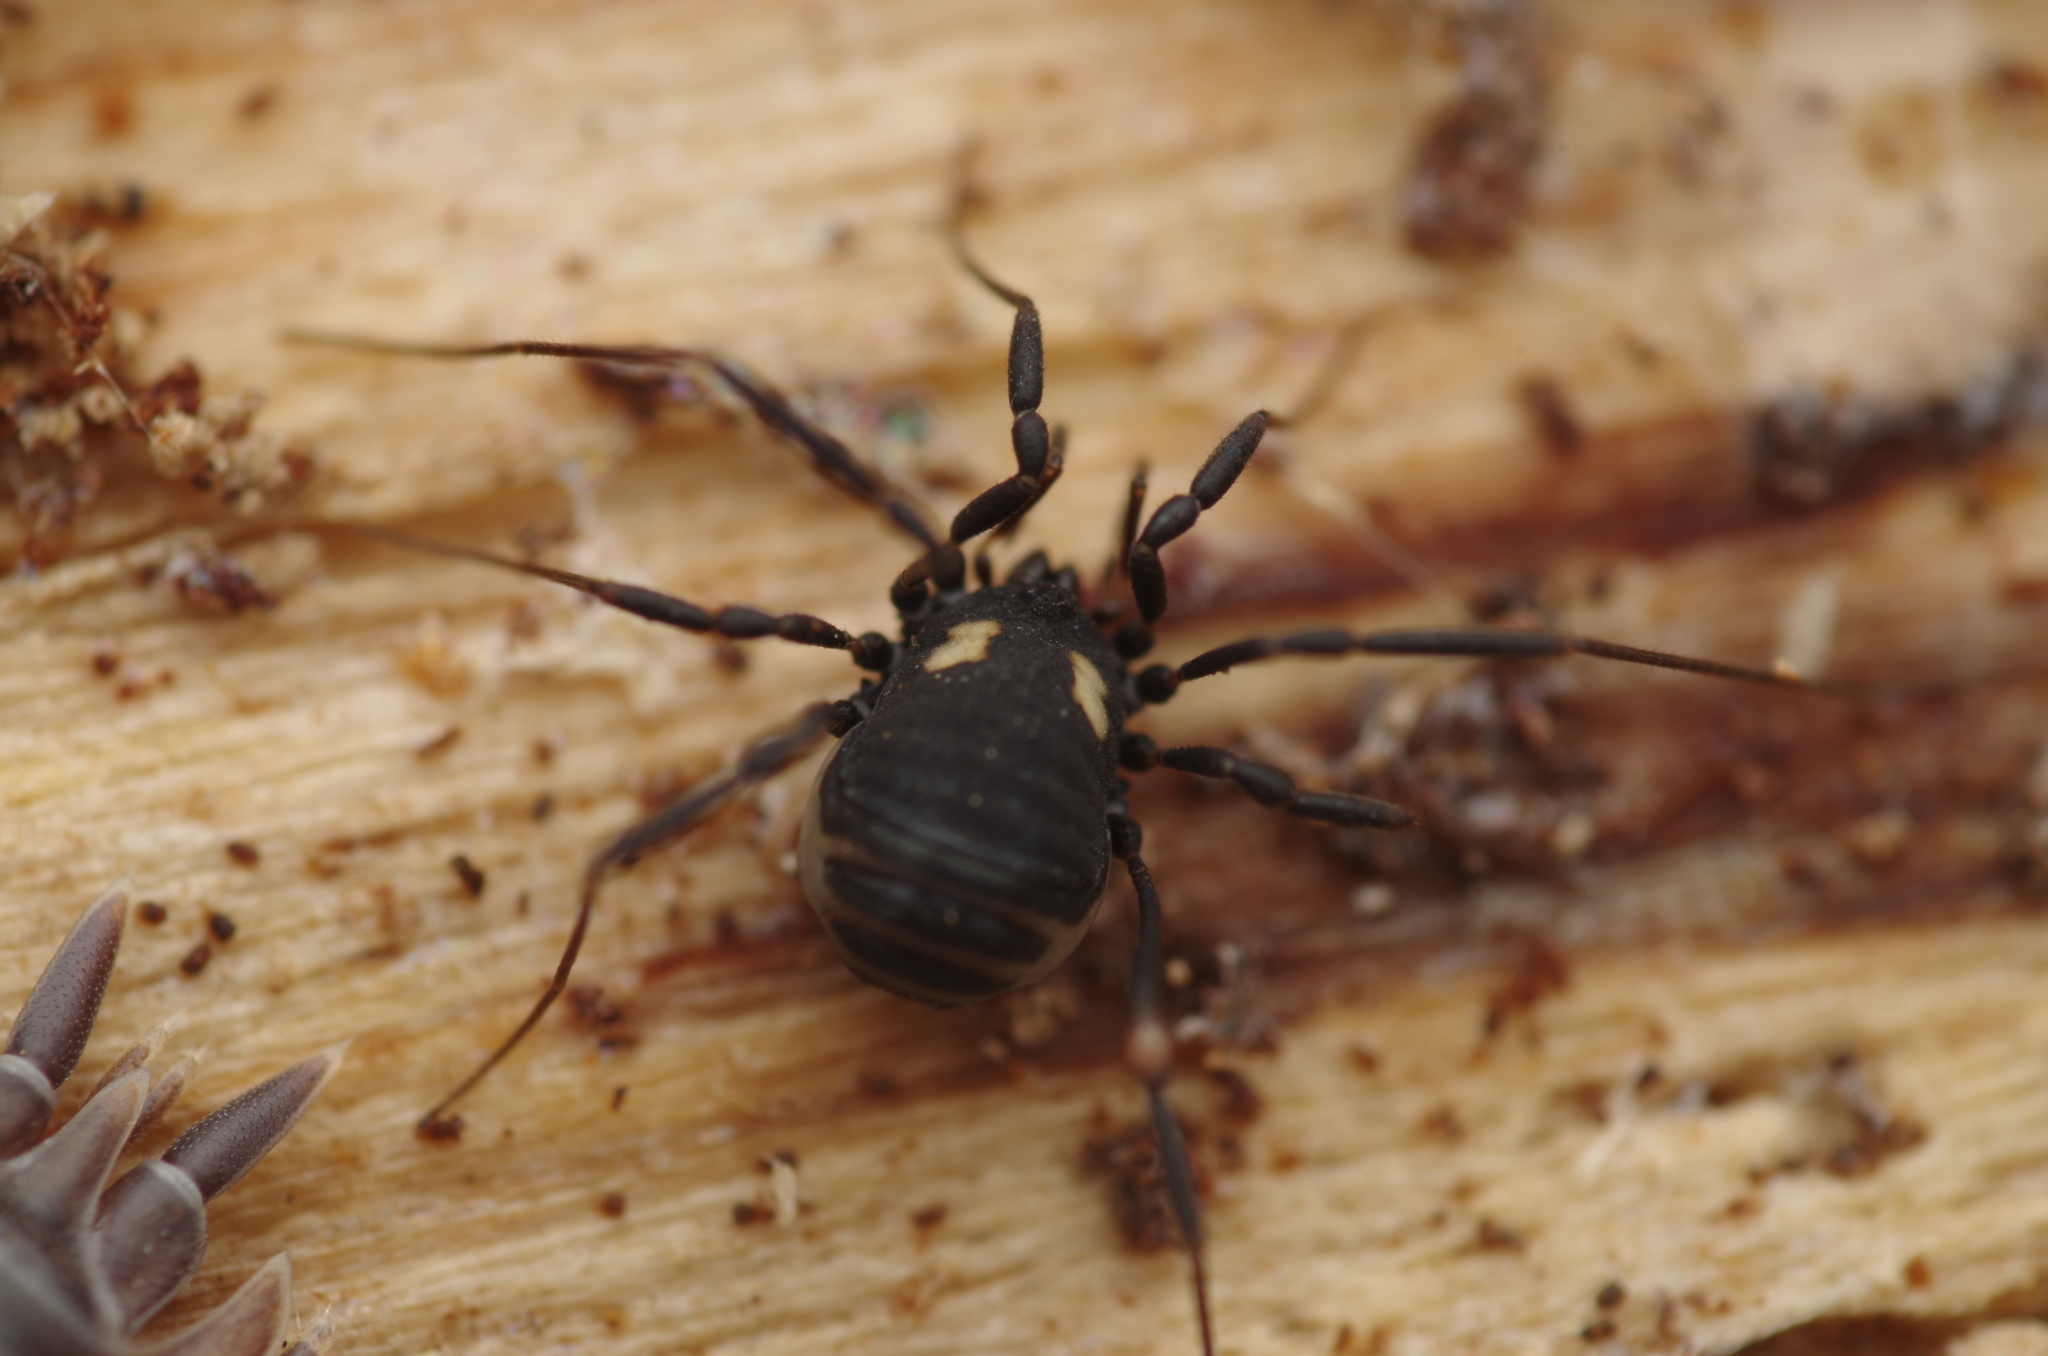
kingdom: Animalia
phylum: Arthropoda
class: Arachnida
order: Opiliones
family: Nemastomatidae
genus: Nemastoma
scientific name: Nemastoma bimaculatum
